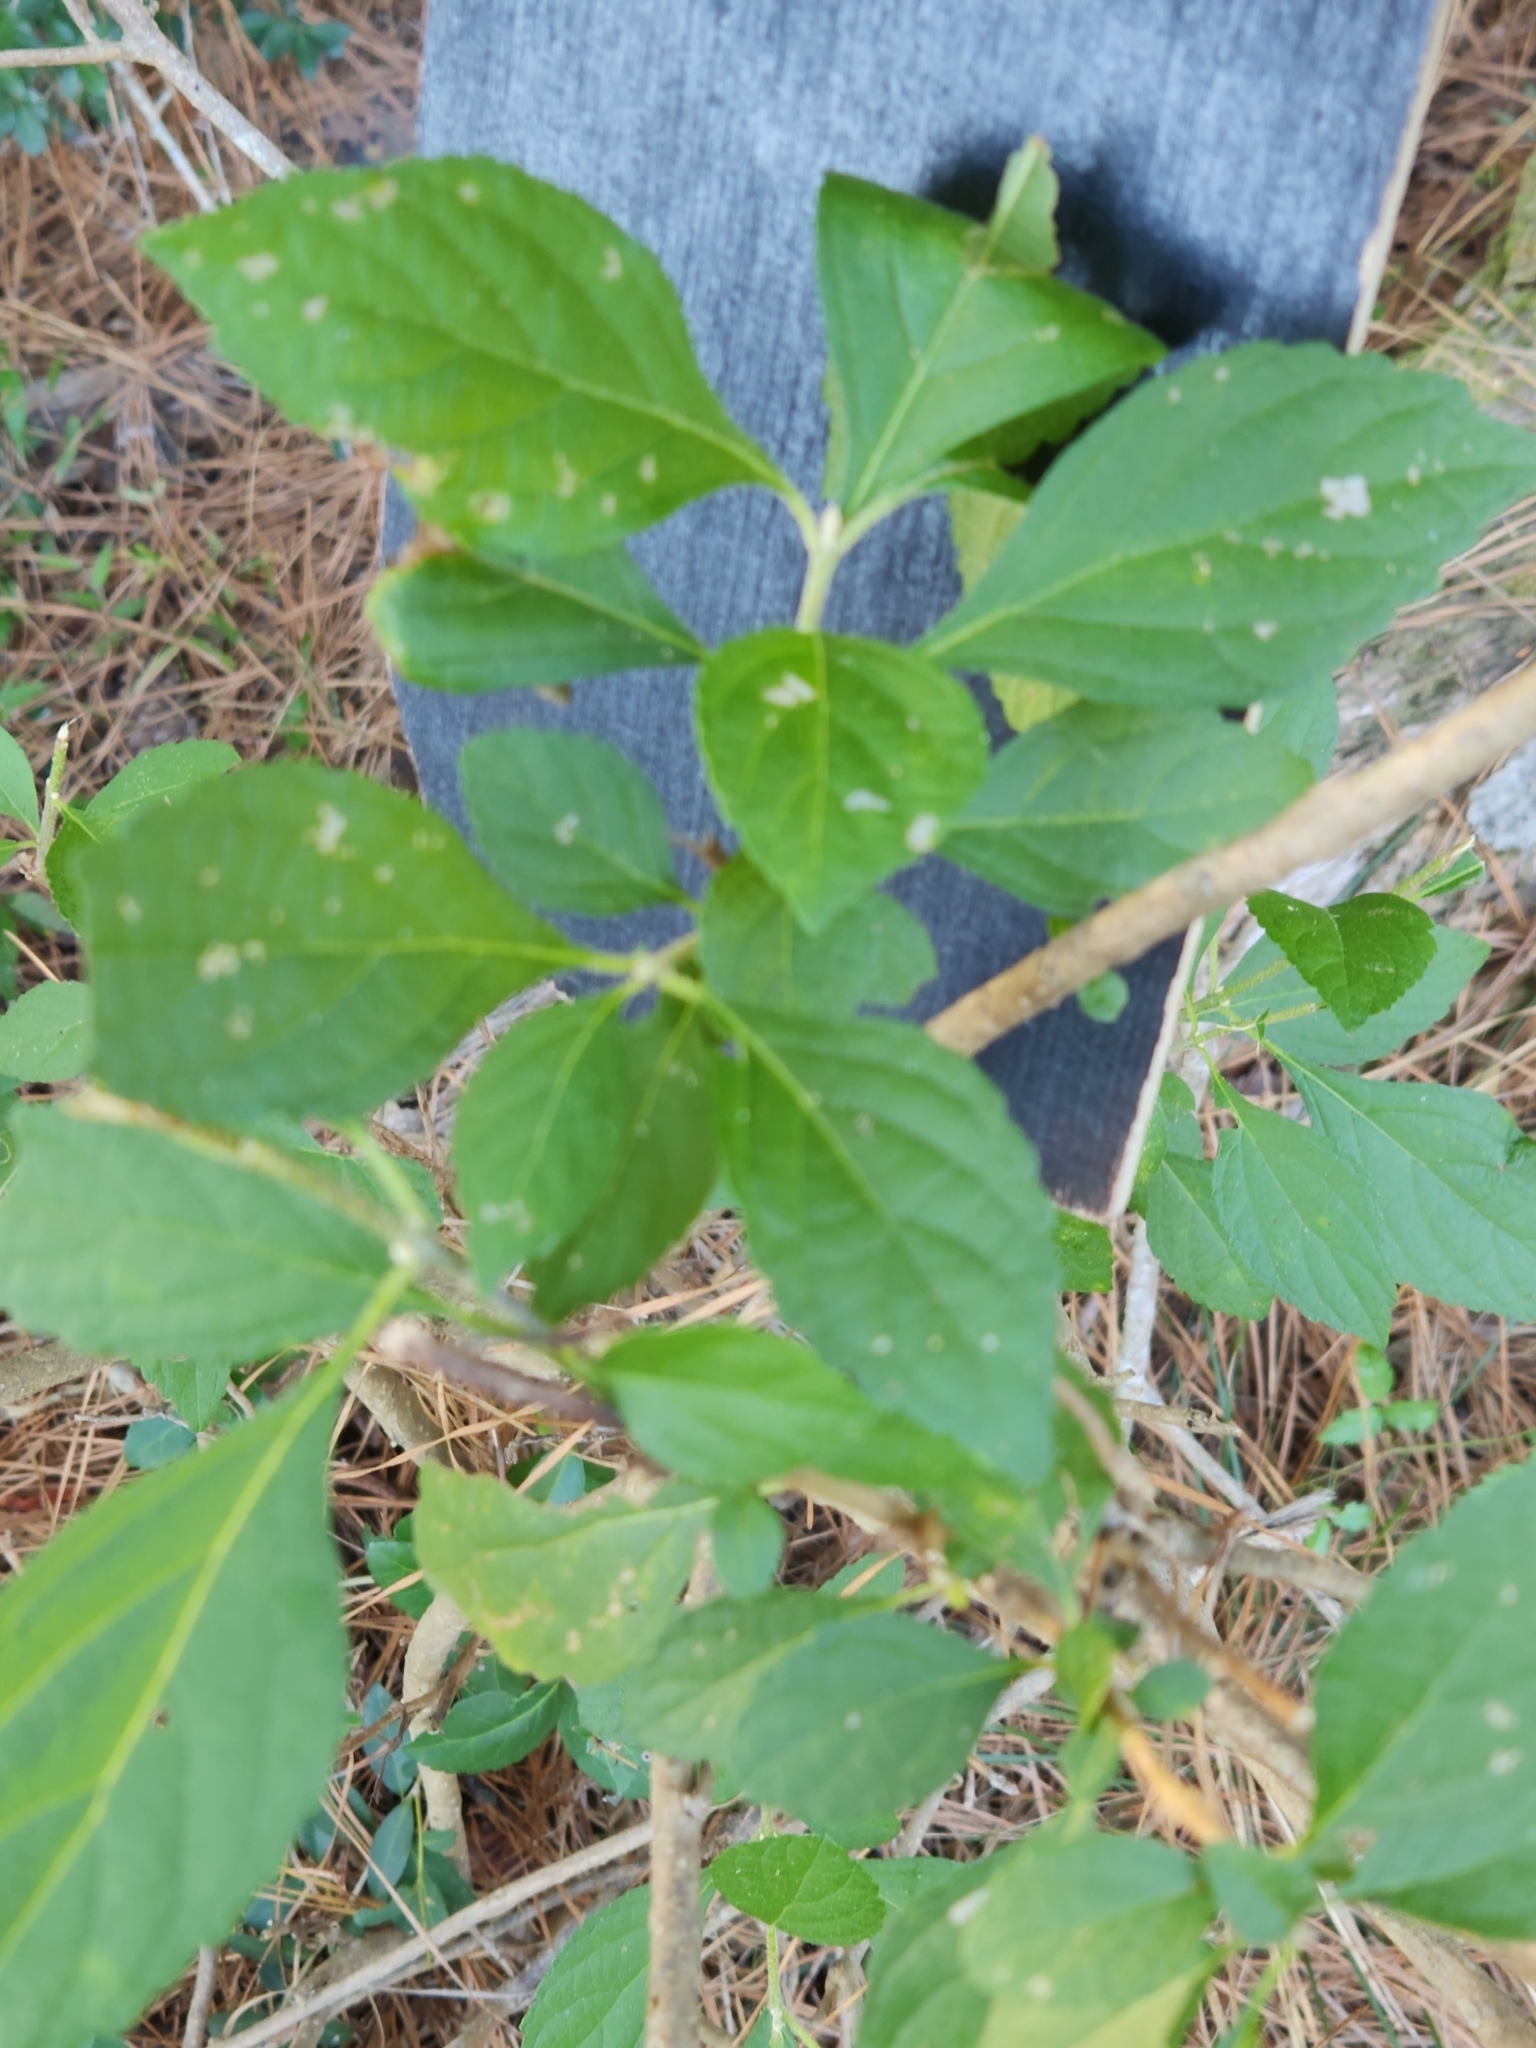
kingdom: Plantae
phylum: Tracheophyta
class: Magnoliopsida
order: Lamiales
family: Lamiaceae
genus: Callicarpa
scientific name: Callicarpa americana
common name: American beautyberry
